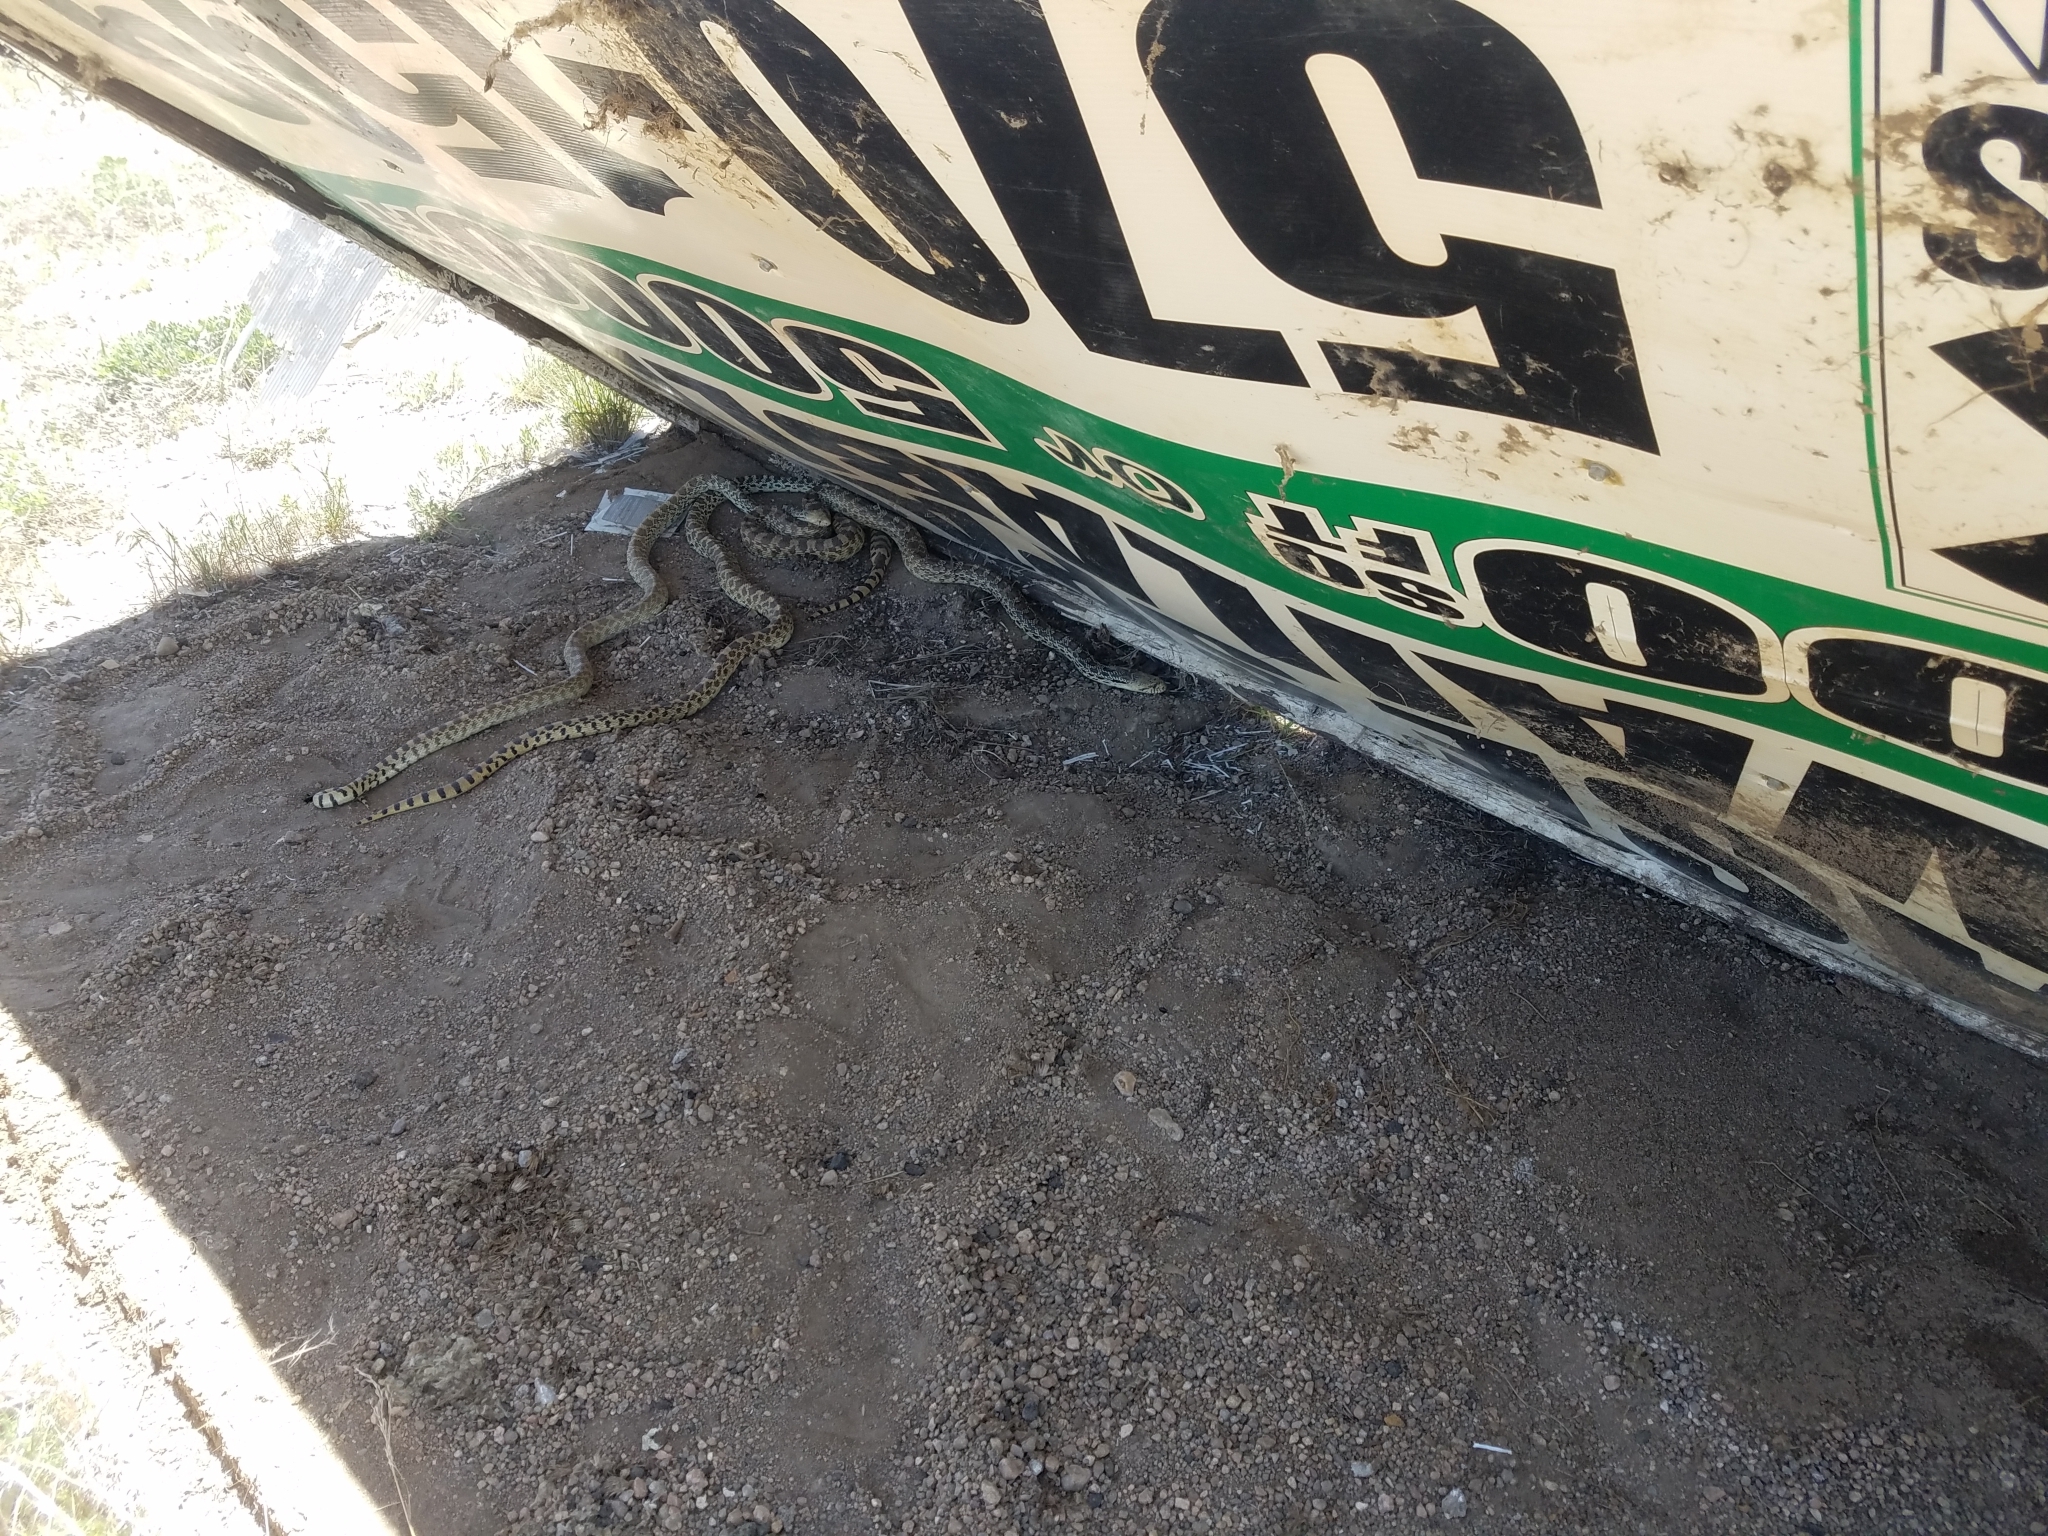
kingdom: Animalia
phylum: Chordata
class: Squamata
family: Colubridae
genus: Pituophis
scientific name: Pituophis catenifer
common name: Gopher snake
